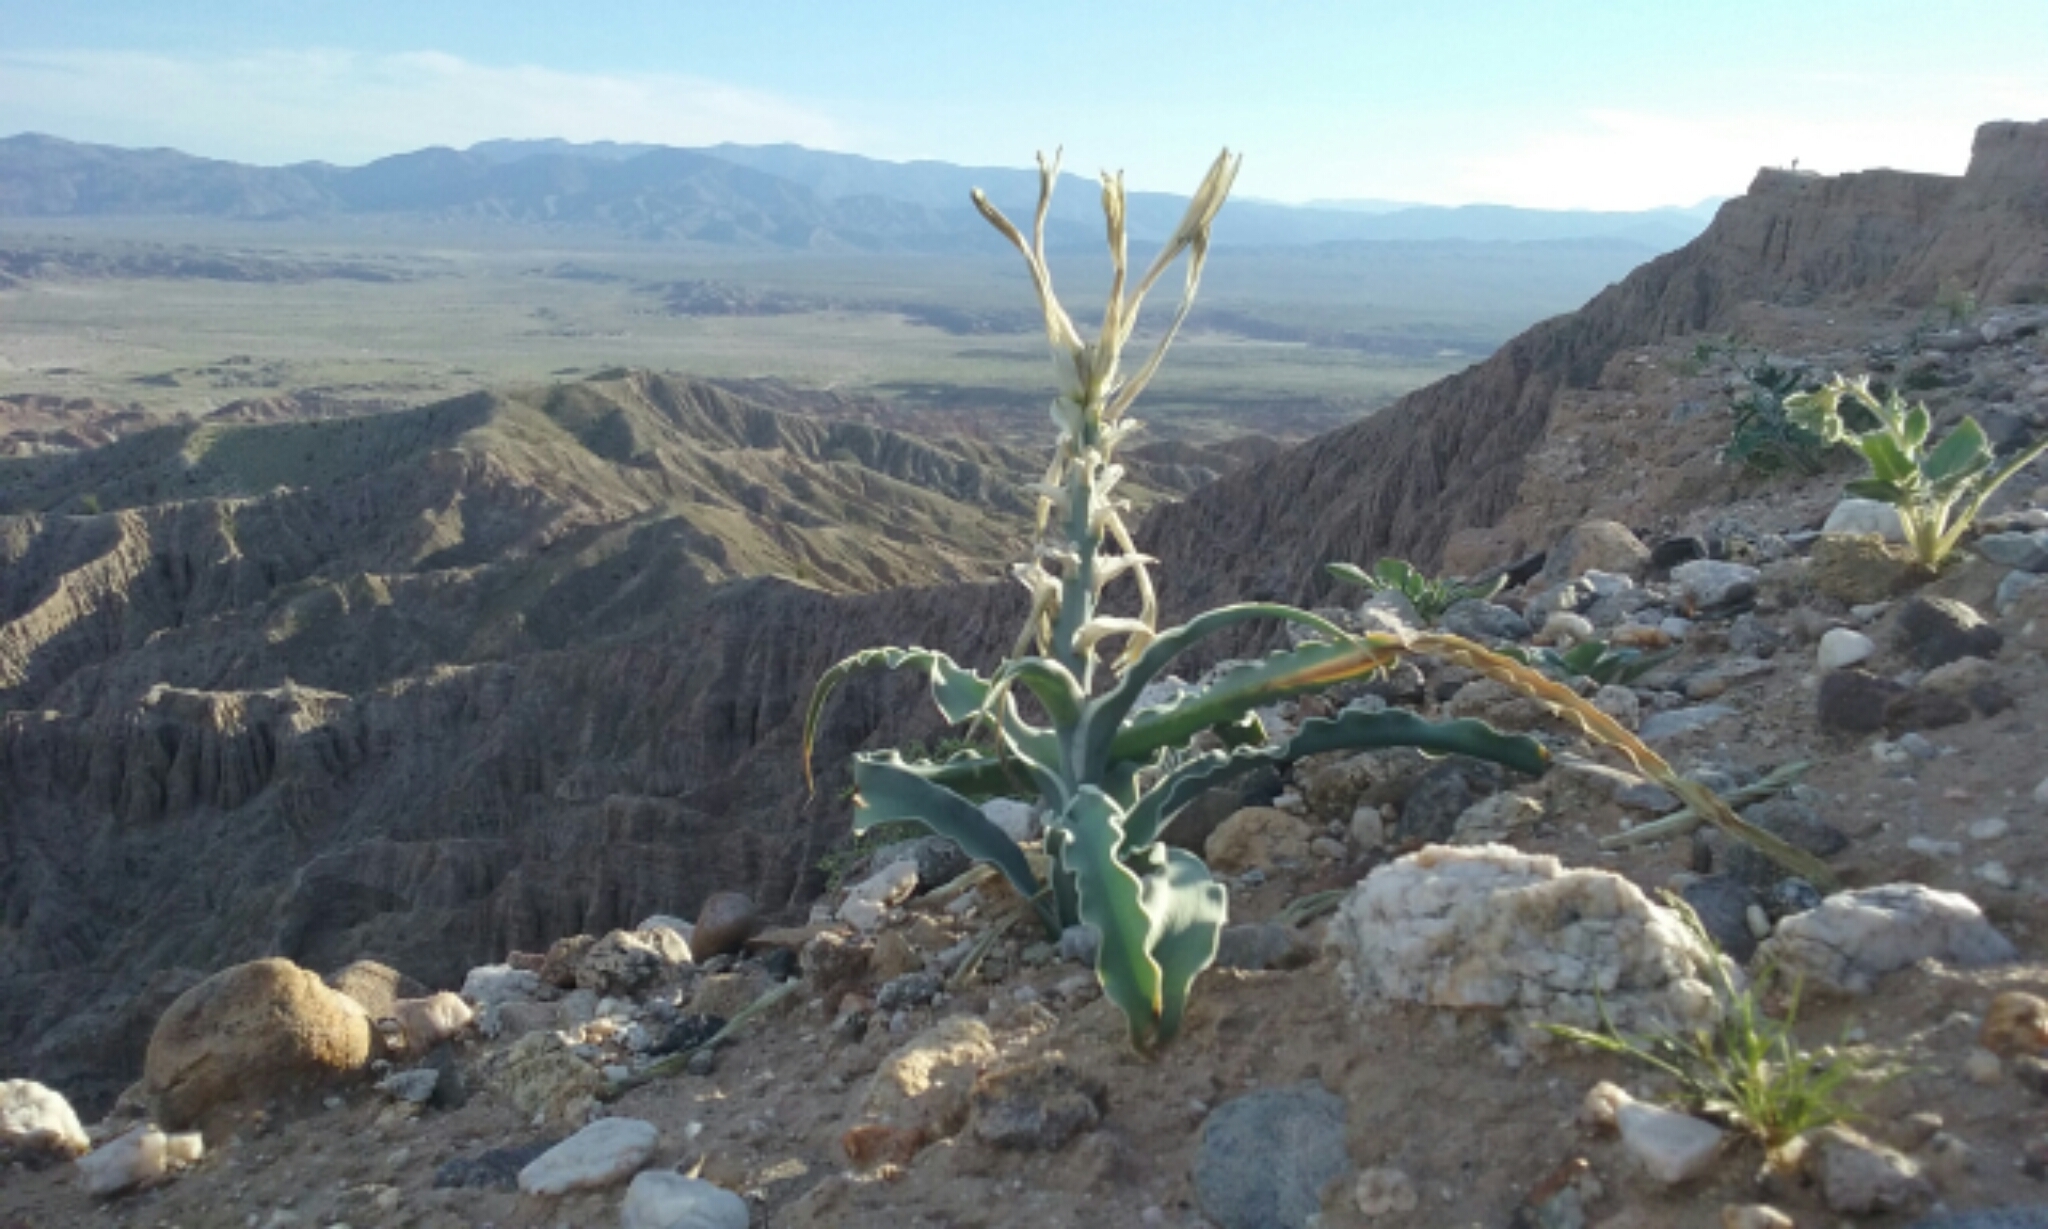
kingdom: Plantae
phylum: Tracheophyta
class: Liliopsida
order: Asparagales
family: Asparagaceae
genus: Hesperocallis
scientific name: Hesperocallis undulata
